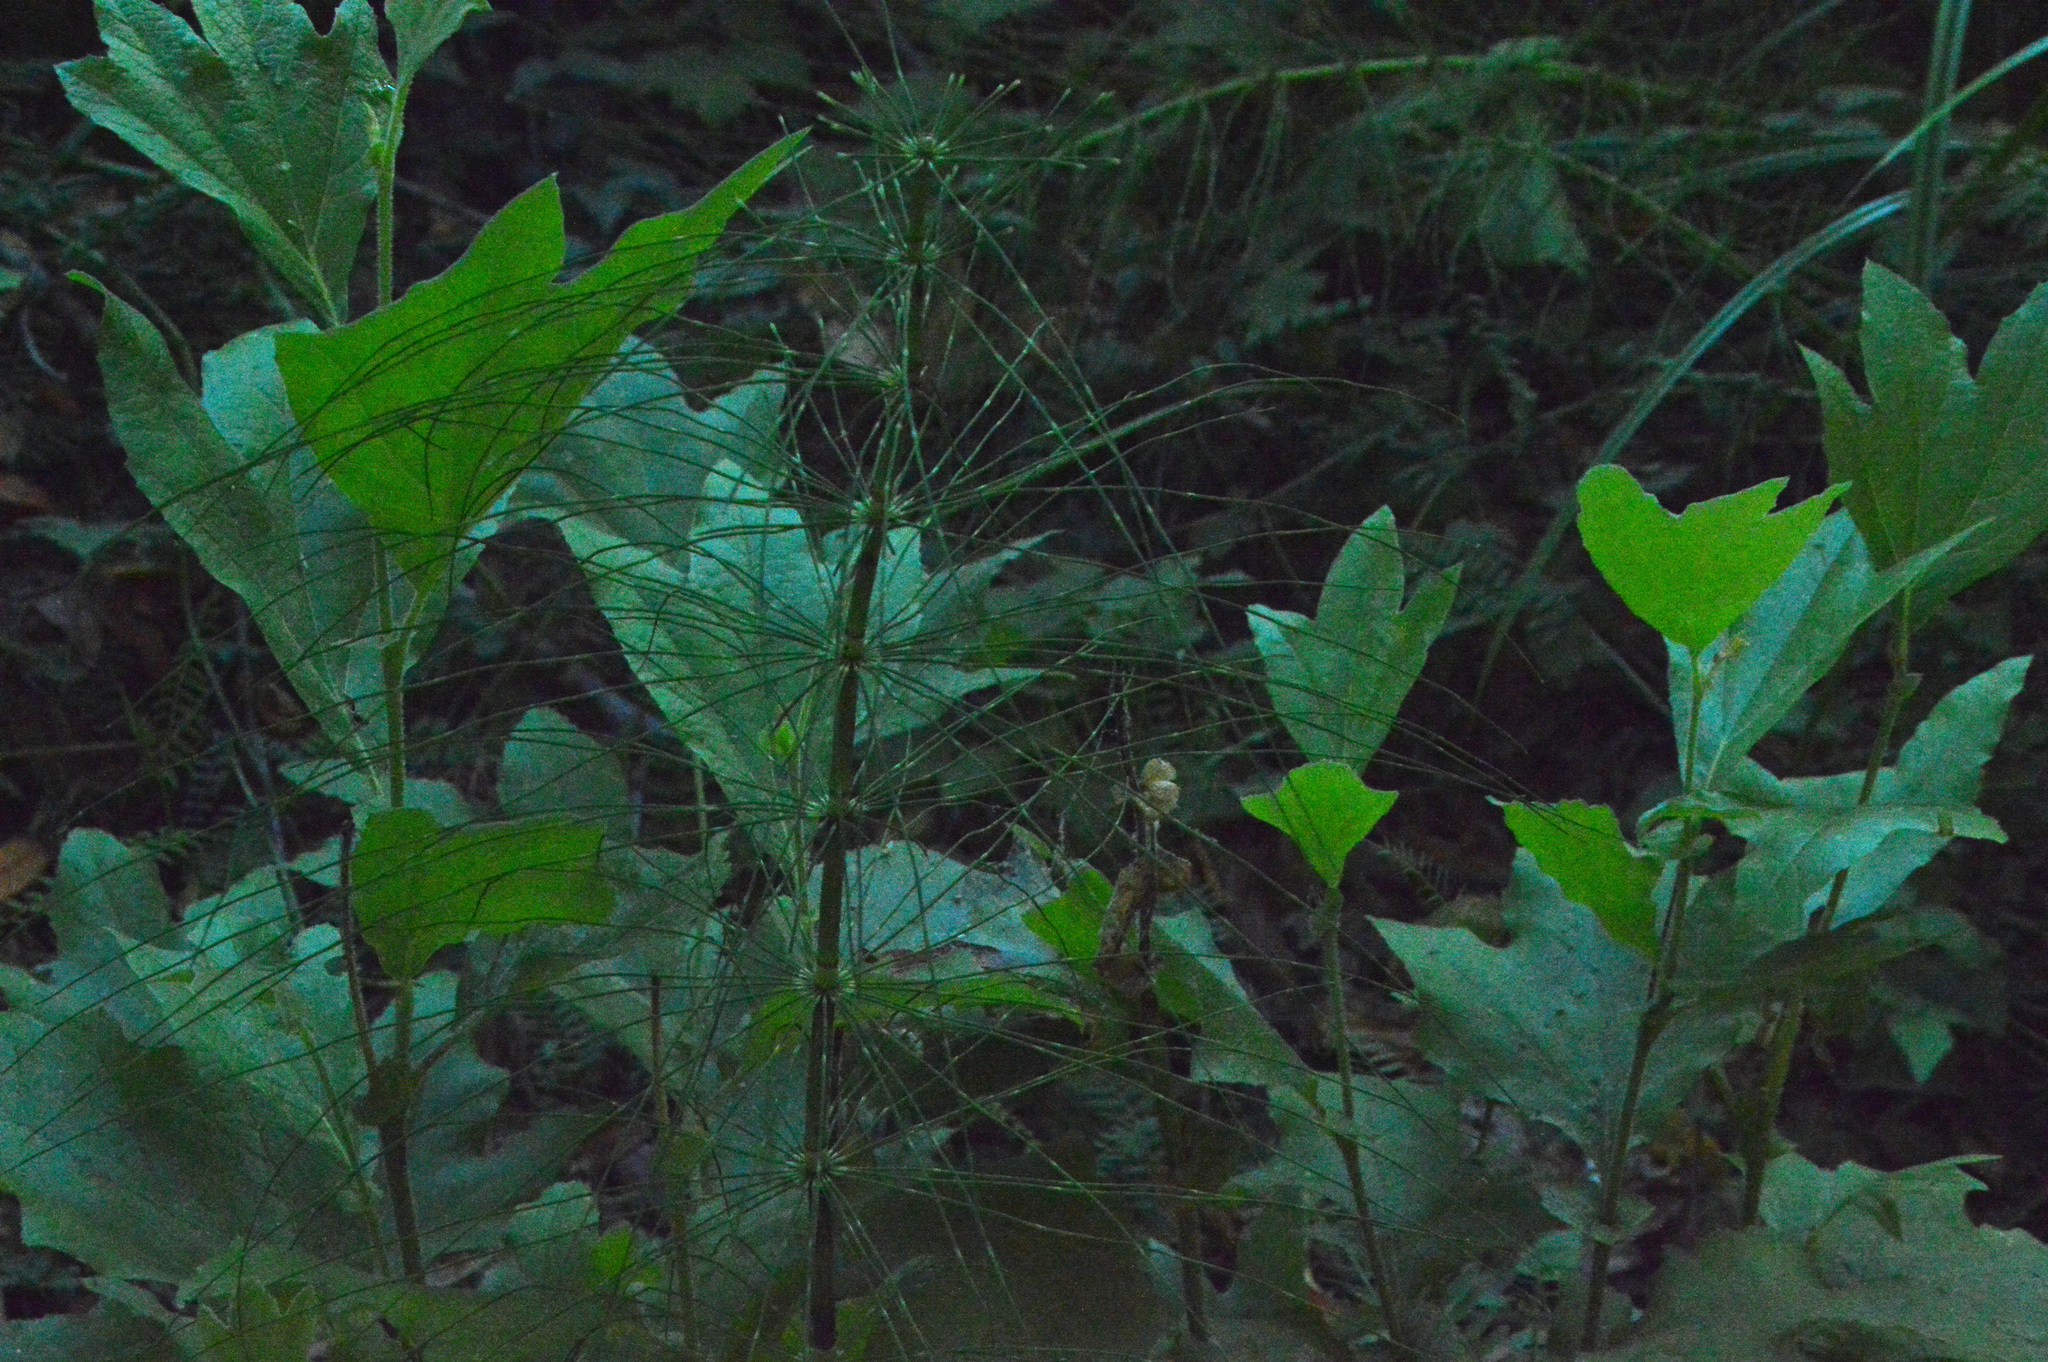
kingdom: Plantae
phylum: Tracheophyta
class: Polypodiopsida
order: Equisetales
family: Equisetaceae
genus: Equisetum
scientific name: Equisetum telmateia
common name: Great horsetail
